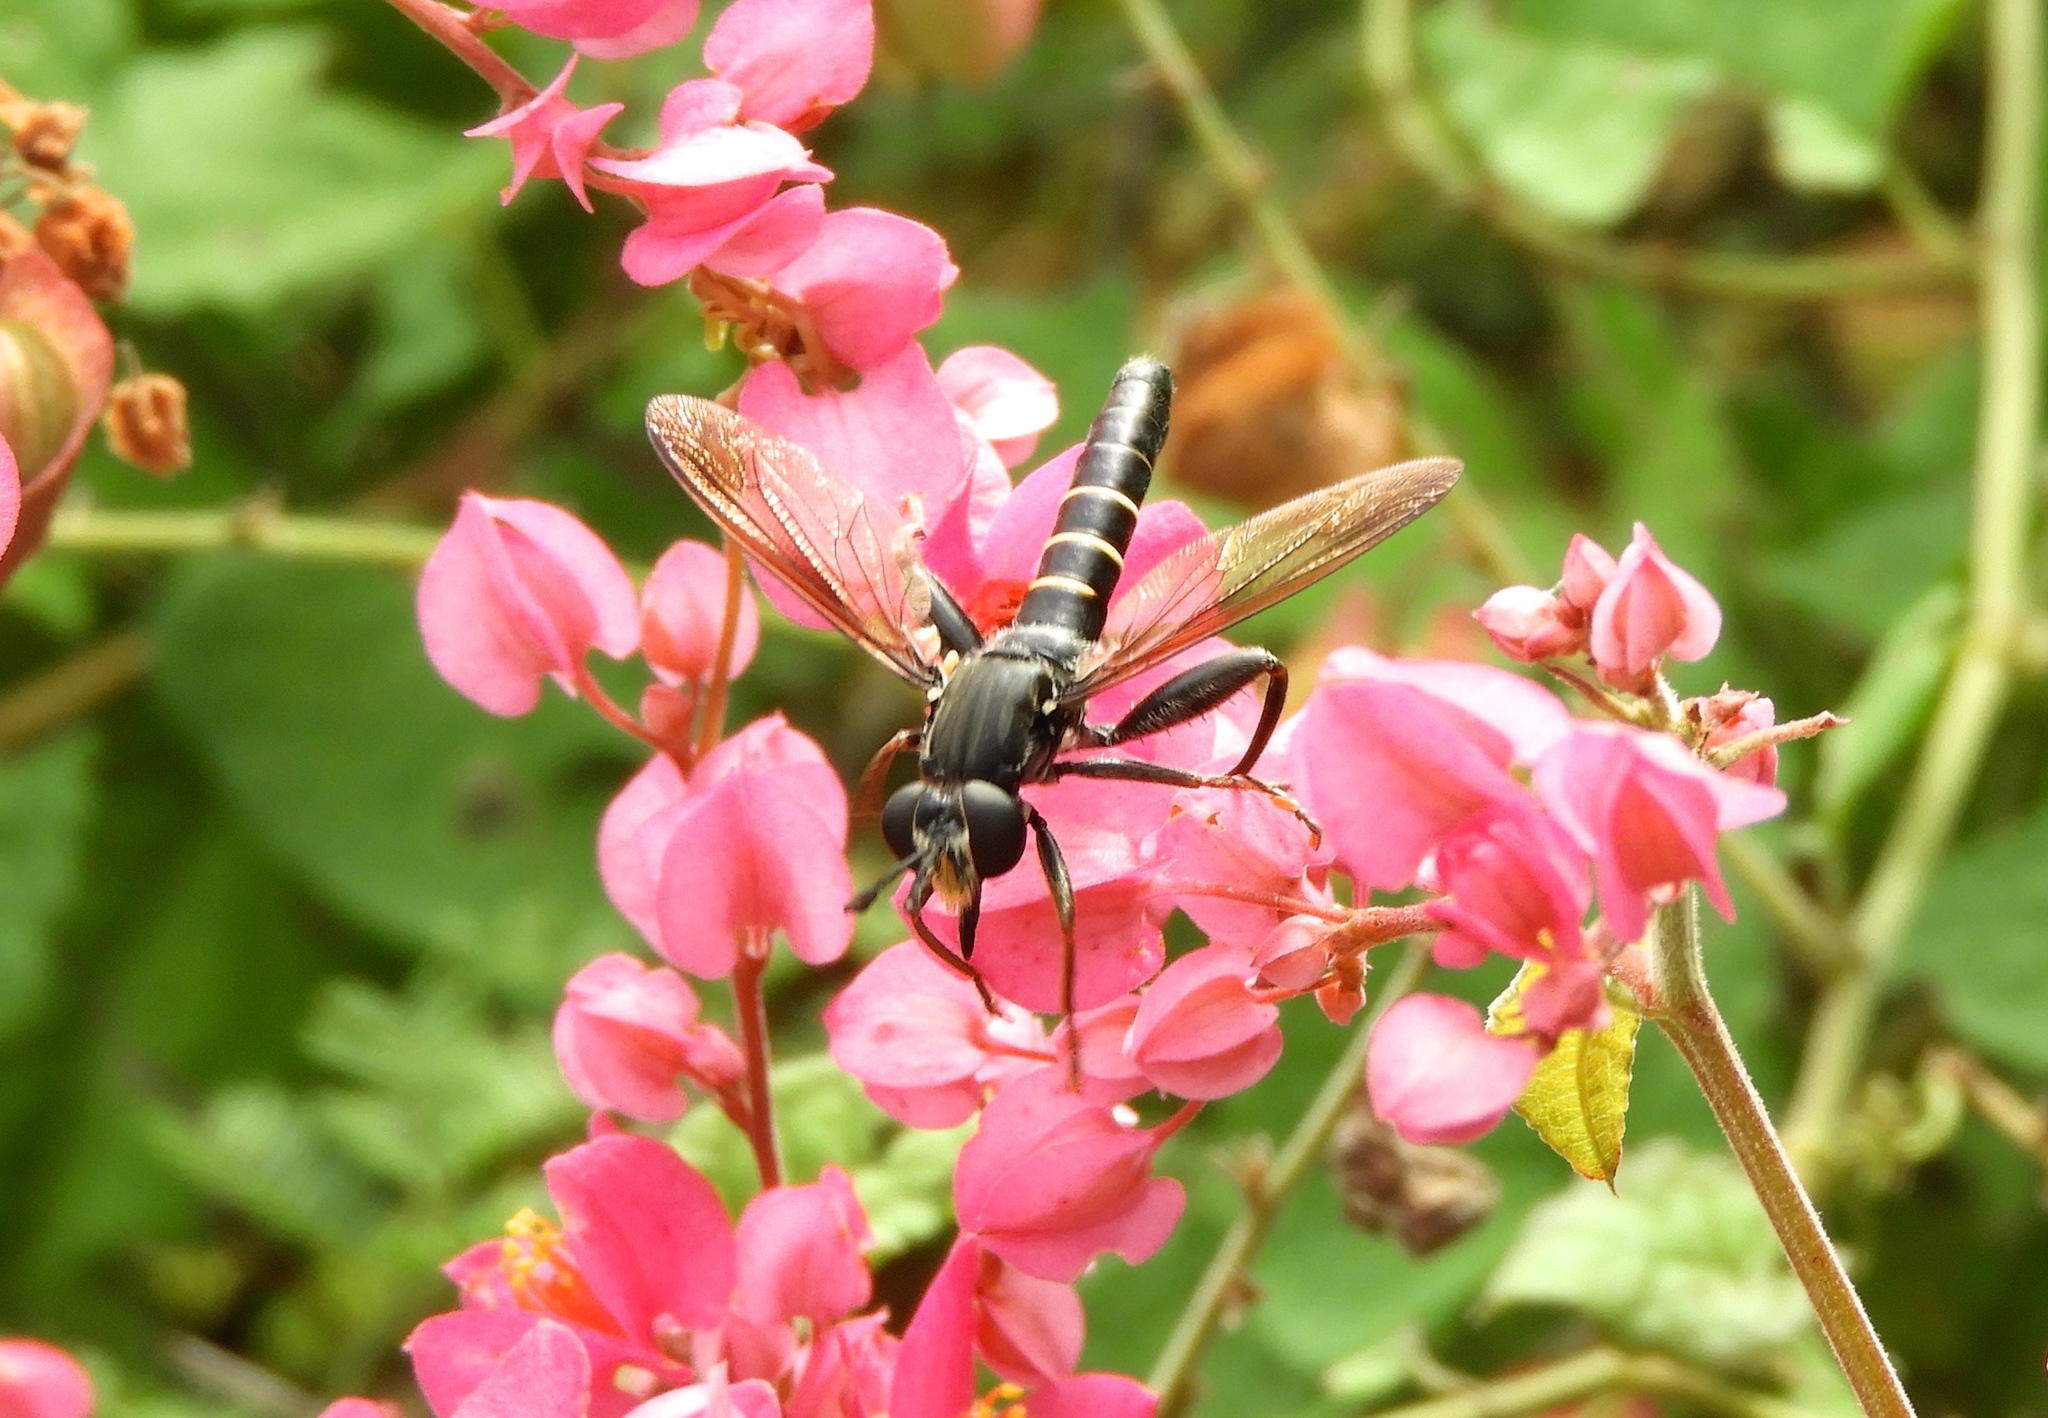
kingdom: Animalia
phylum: Arthropoda
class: Insecta
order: Diptera
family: Mydidae
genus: Mydas
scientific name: Mydas annularis
